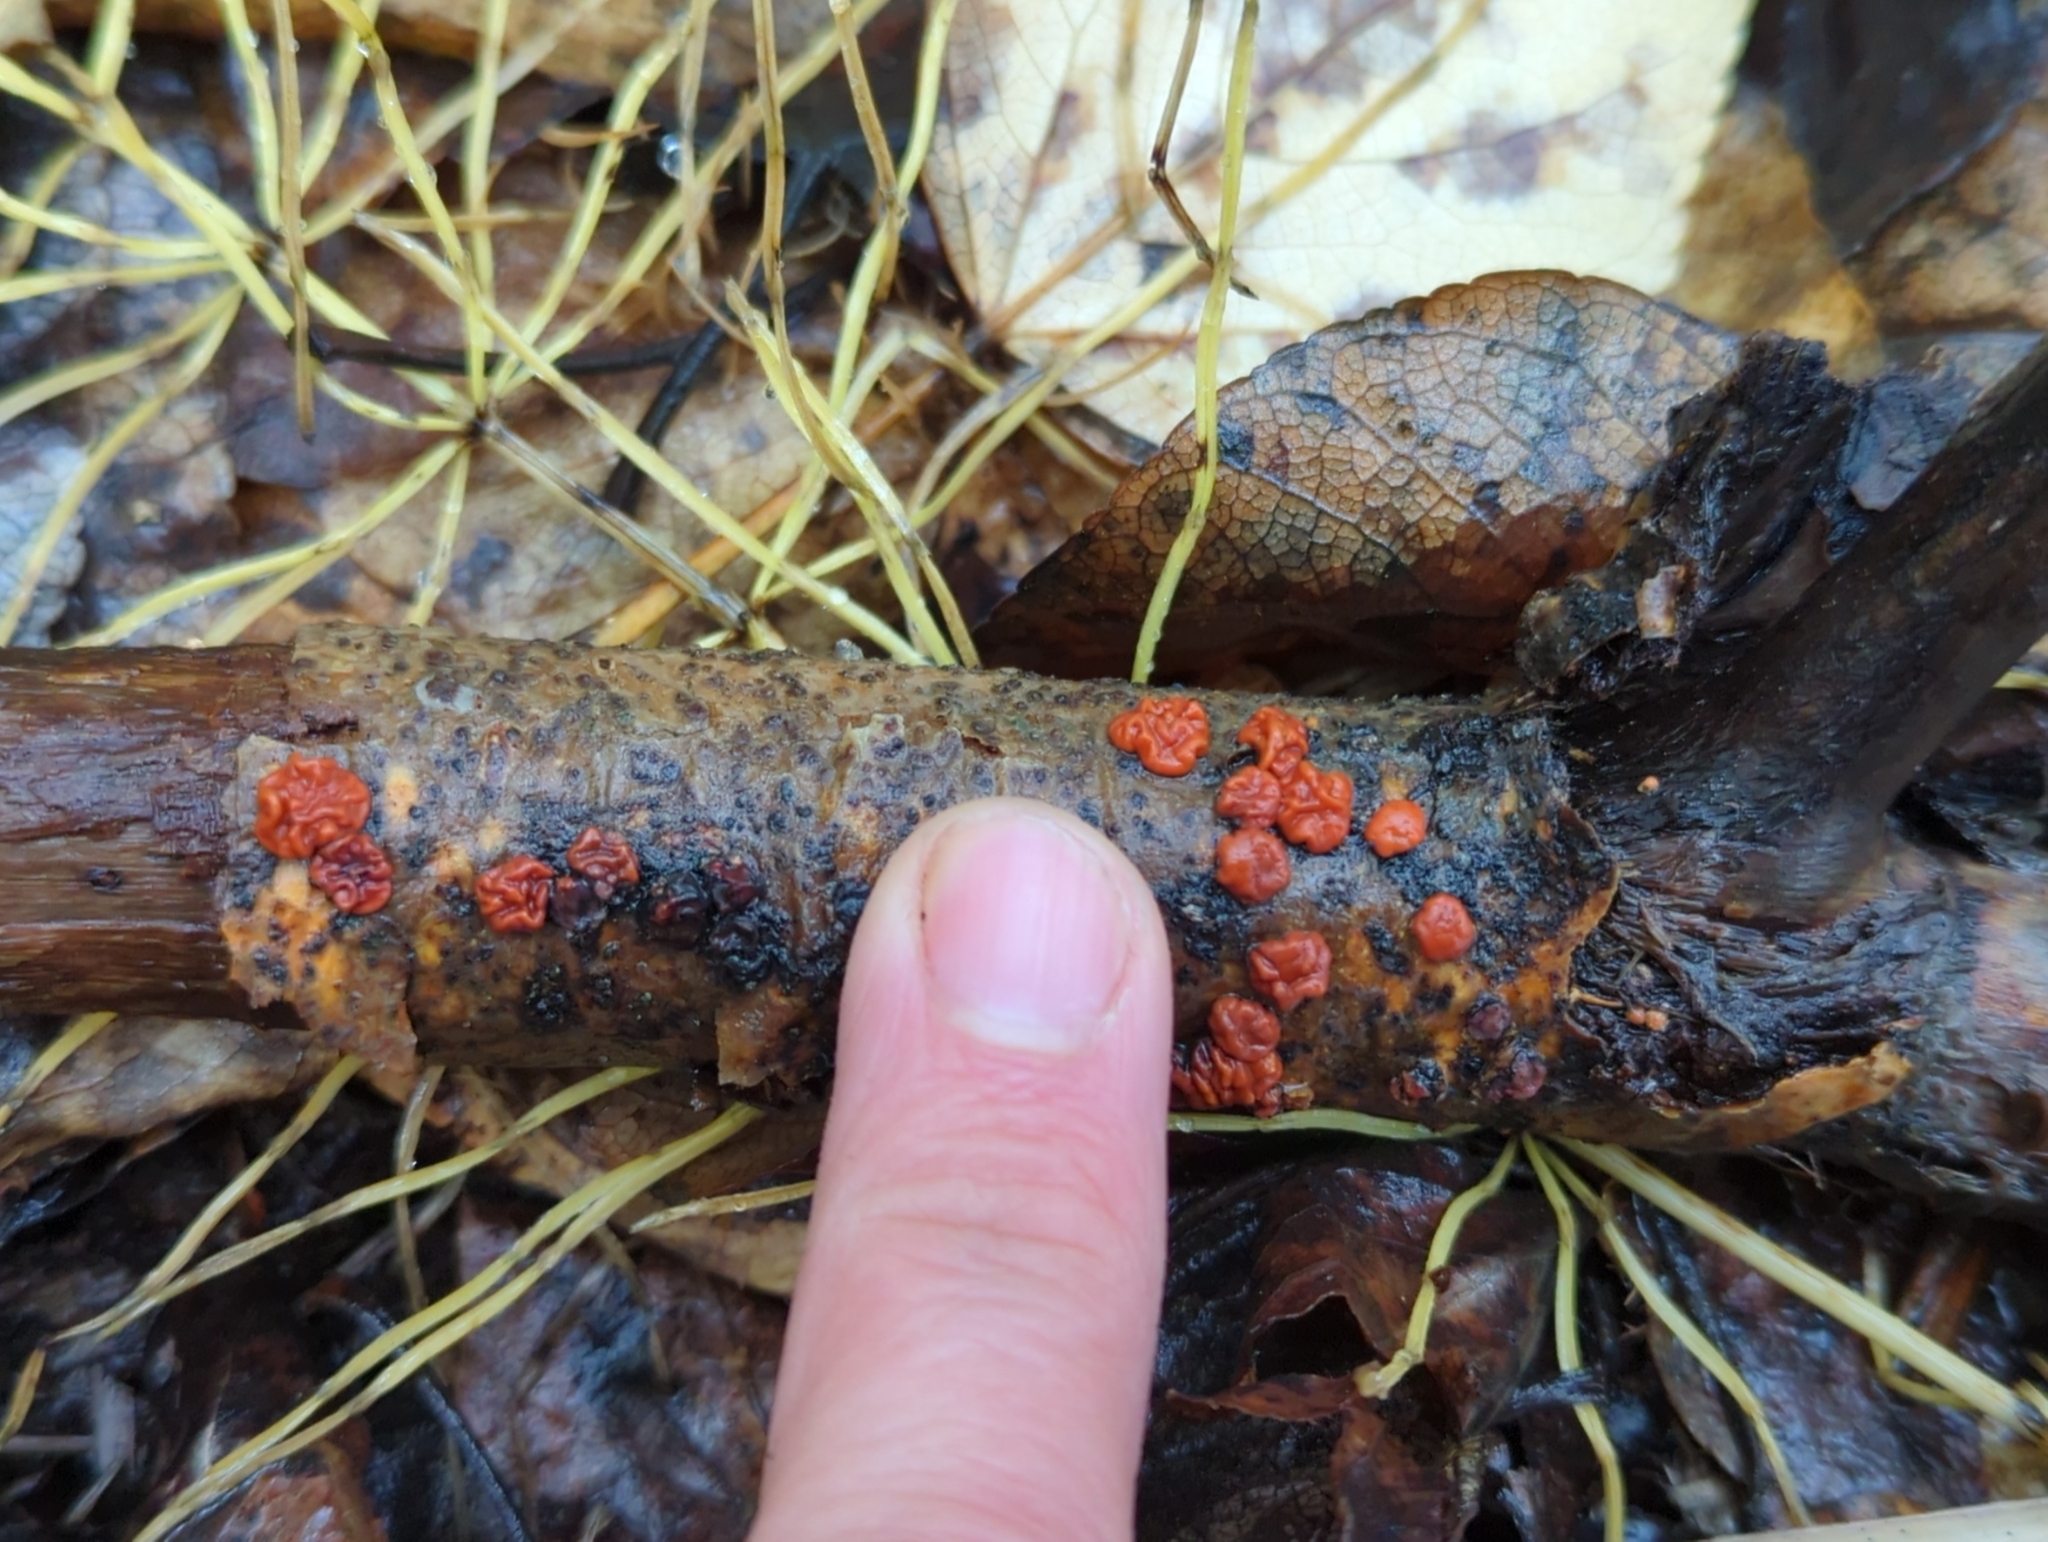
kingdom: Fungi
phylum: Basidiomycota
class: Agaricomycetes
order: Russulales
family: Peniophoraceae
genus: Peniophora
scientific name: Peniophora rufa
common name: Red tree brain fungus
